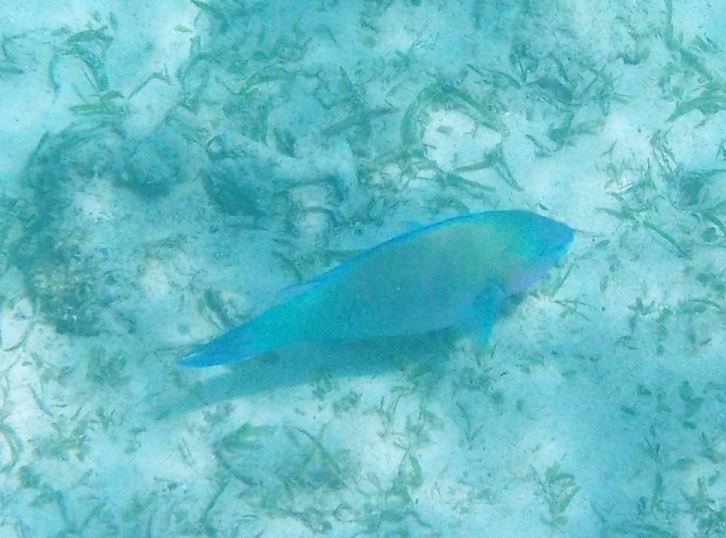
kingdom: Animalia
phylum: Chordata
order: Perciformes
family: Scaridae
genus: Scarus
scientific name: Scarus psittacus
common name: Palenose parrotfish
